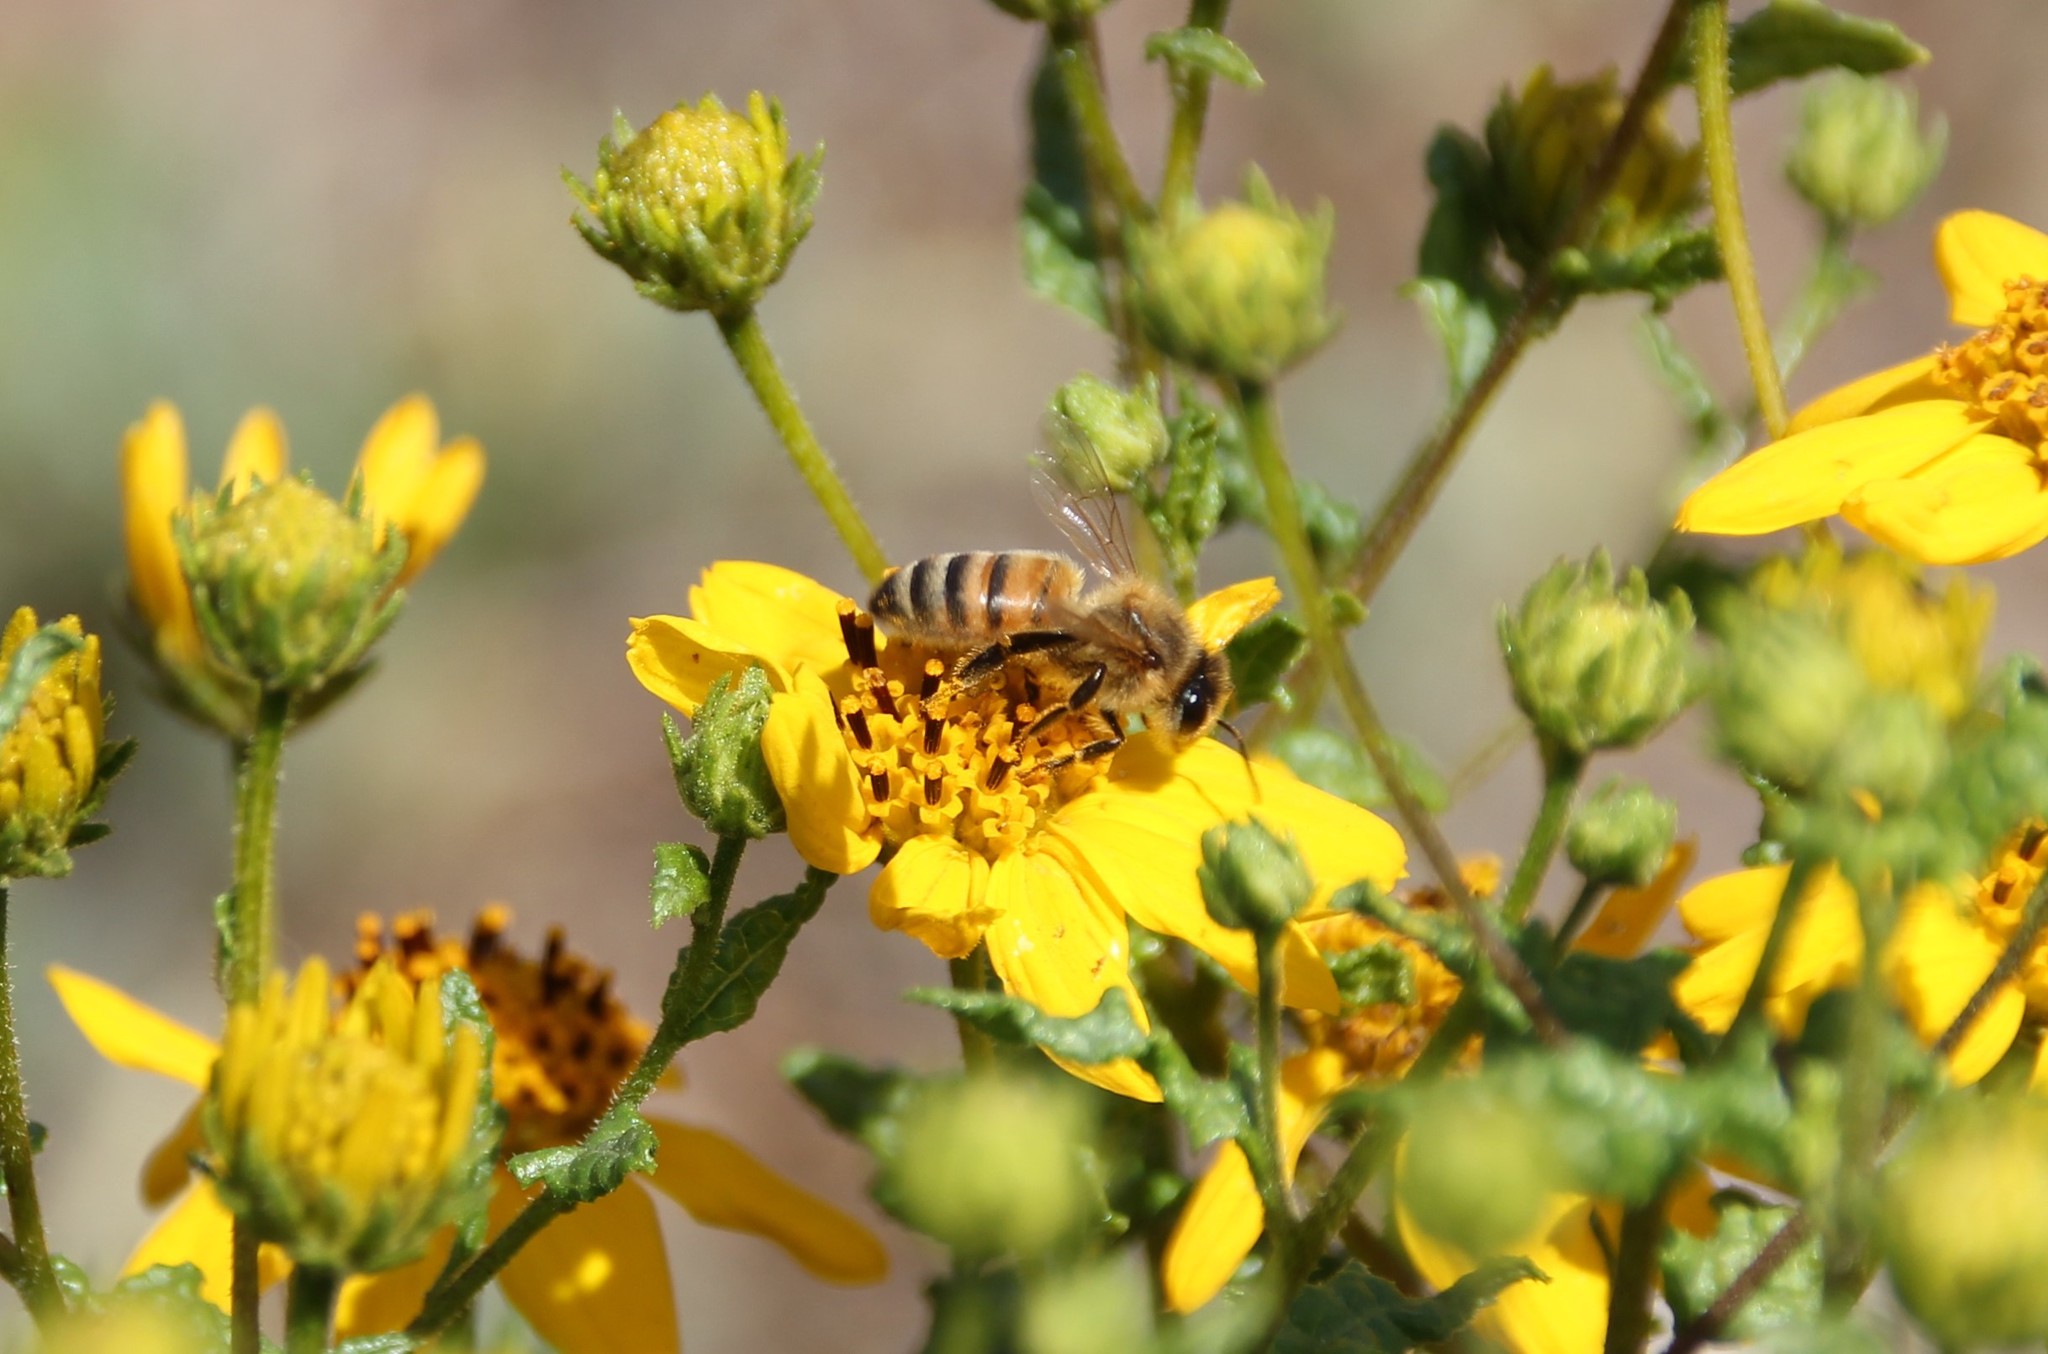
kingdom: Animalia
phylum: Arthropoda
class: Insecta
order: Hymenoptera
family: Apidae
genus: Apis
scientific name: Apis mellifera
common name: Honey bee
